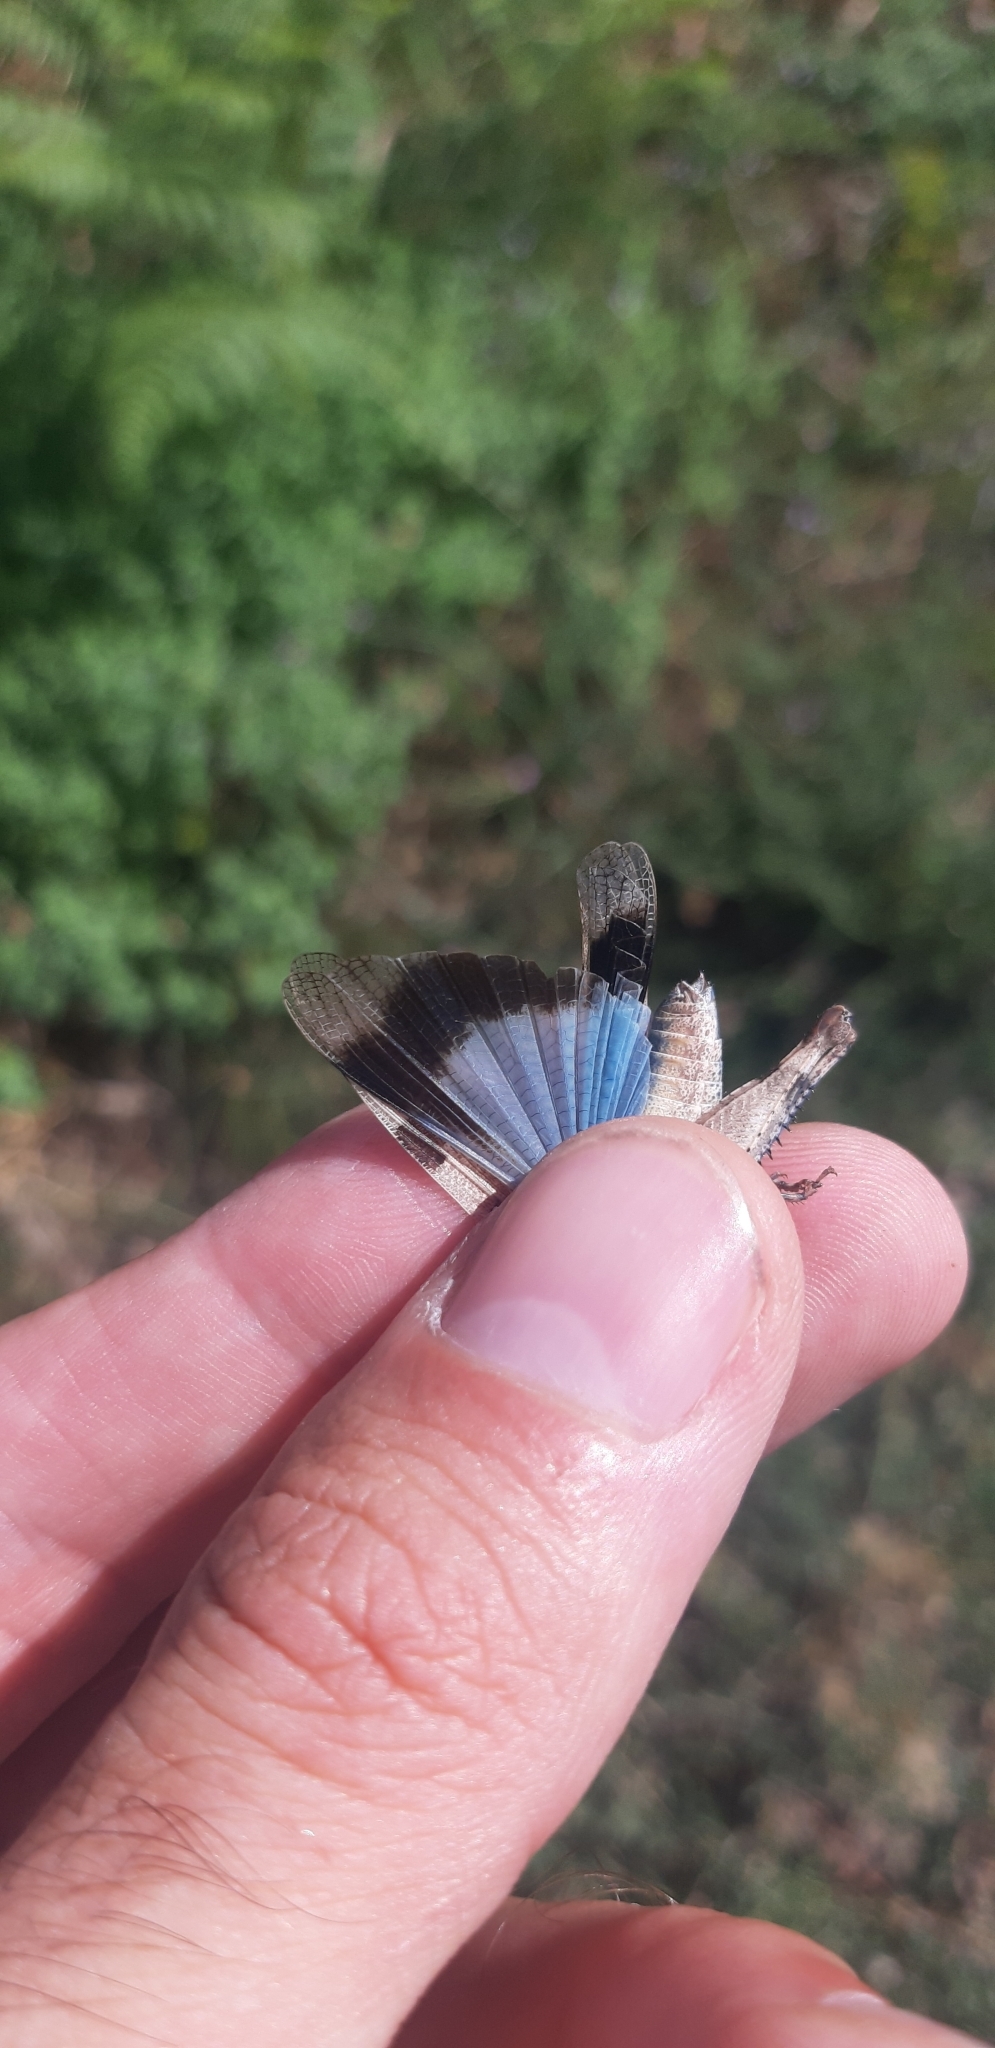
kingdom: Animalia
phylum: Arthropoda
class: Insecta
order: Orthoptera
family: Acrididae
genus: Oedipoda
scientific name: Oedipoda caerulescens
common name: Blue-winged grasshopper
